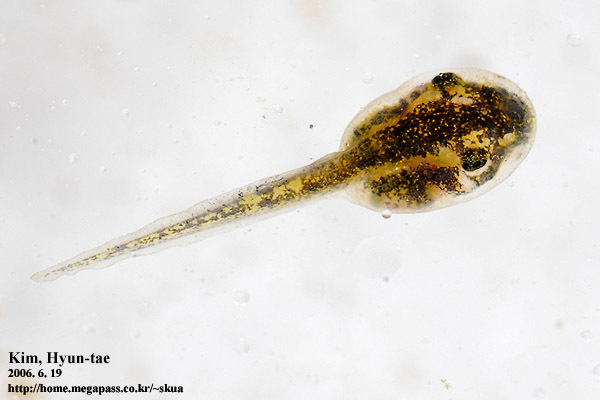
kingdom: Animalia
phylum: Chordata
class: Amphibia
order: Anura
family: Hylidae
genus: Dryophytes
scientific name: Dryophytes japonicus
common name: Japanese treefrog
